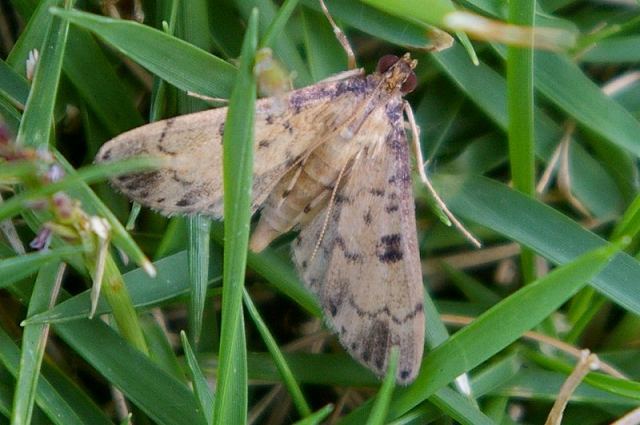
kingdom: Animalia
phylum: Arthropoda
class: Insecta
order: Lepidoptera
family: Crambidae
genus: Nacoleia
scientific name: Nacoleia charesalis
